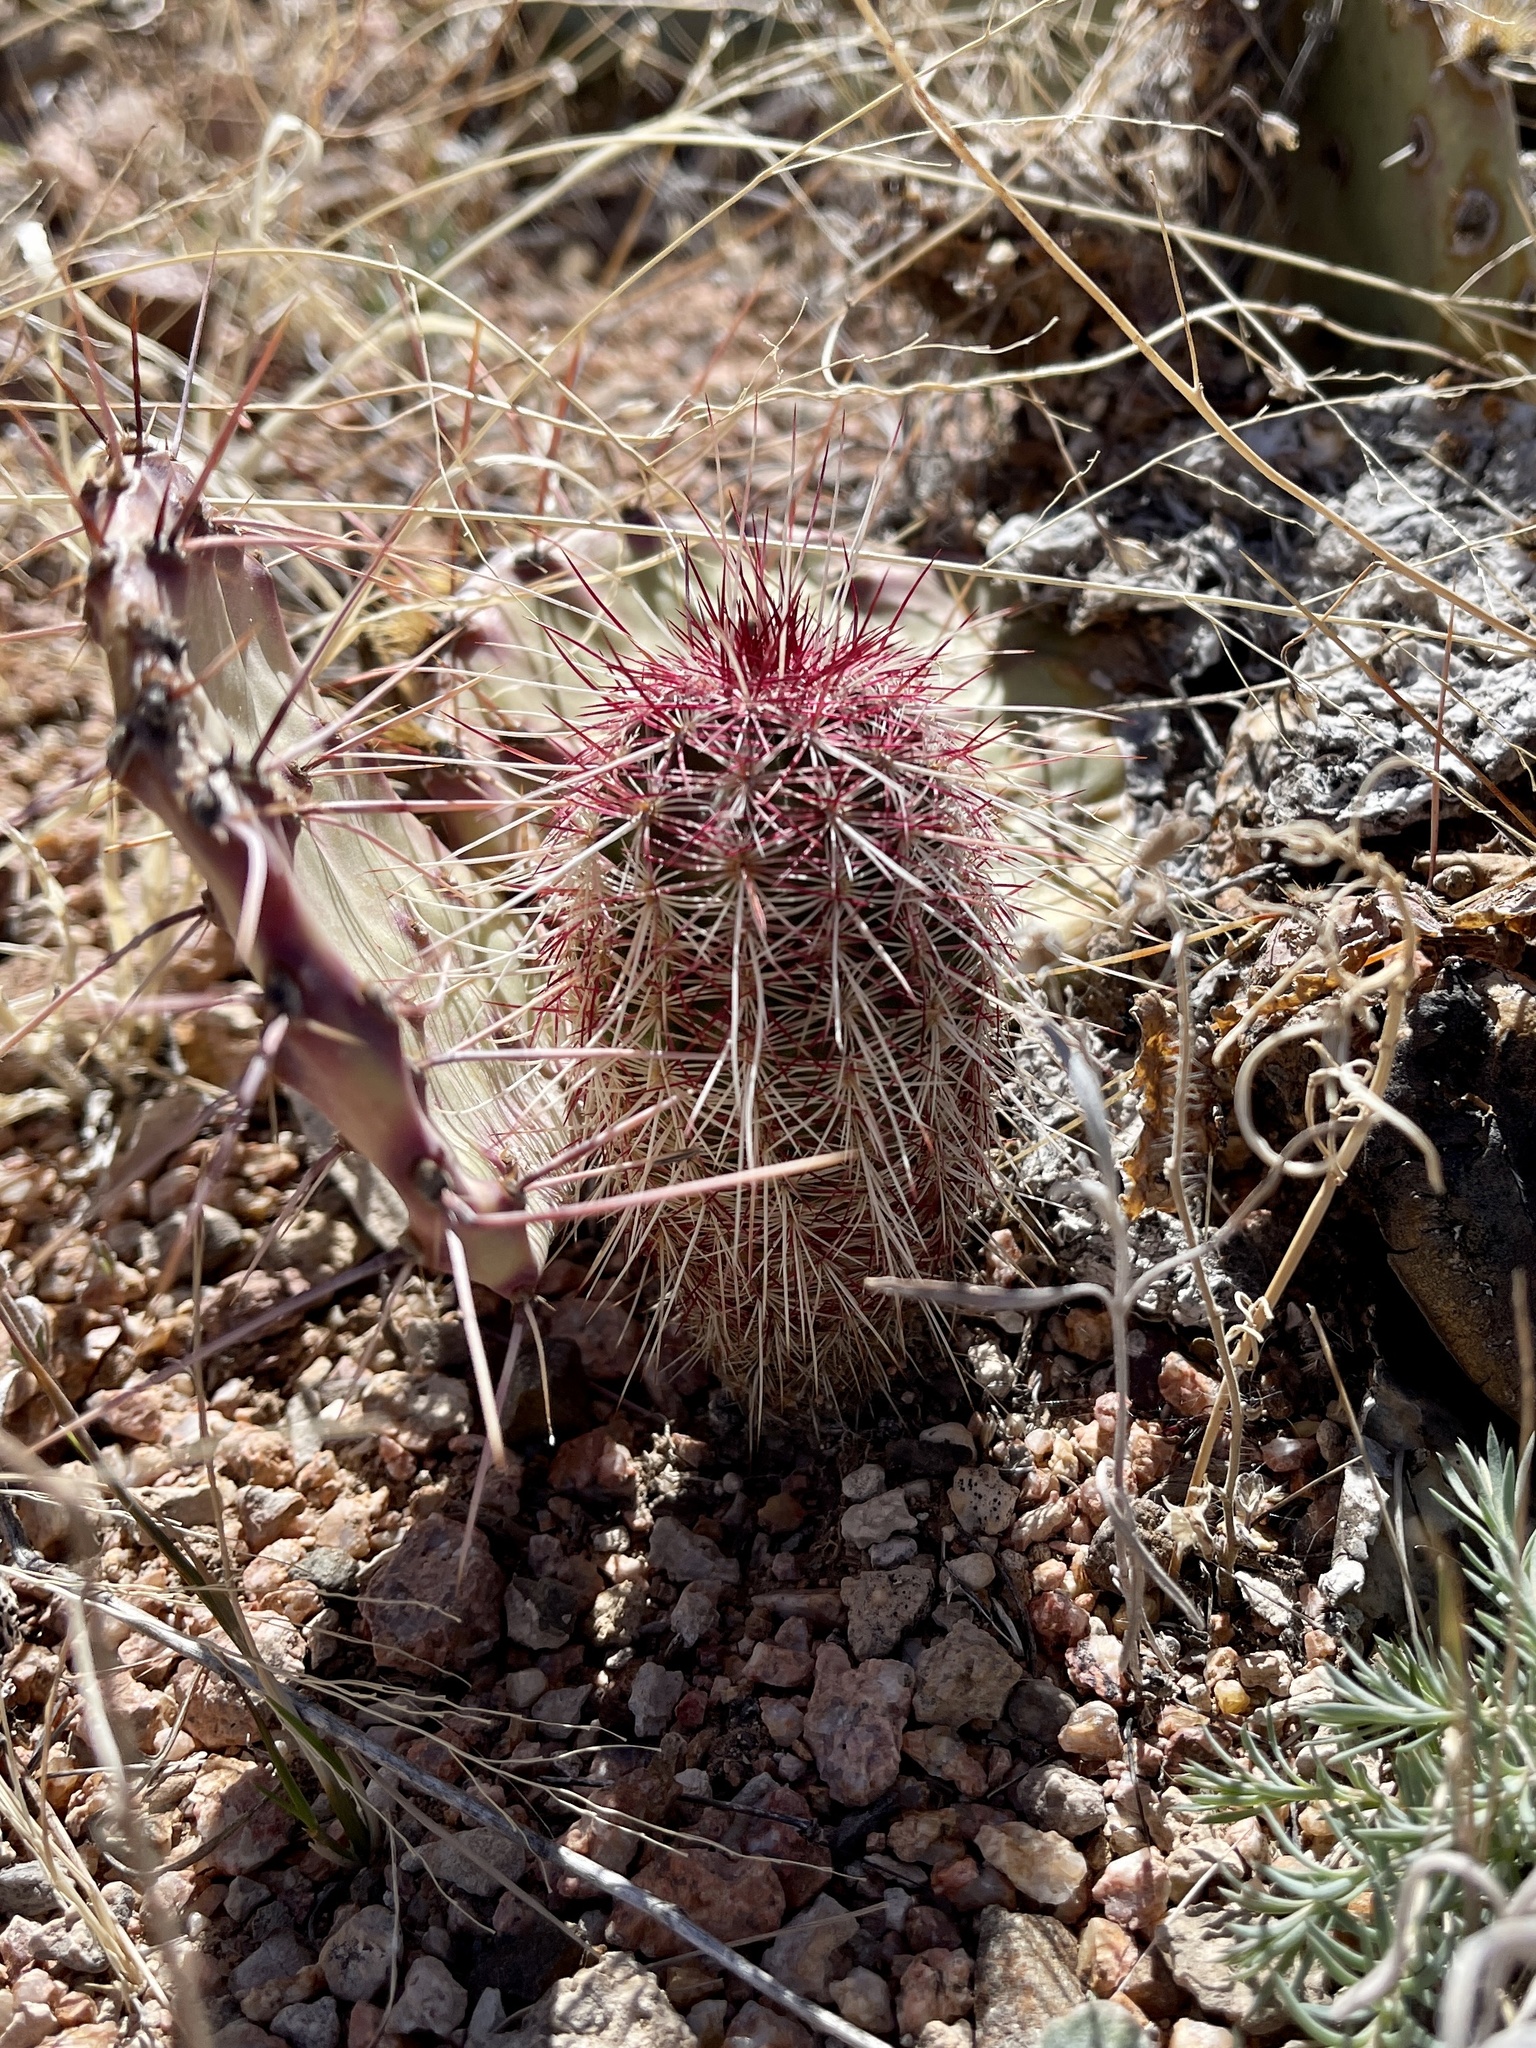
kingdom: Plantae
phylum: Tracheophyta
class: Magnoliopsida
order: Caryophyllales
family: Cactaceae
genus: Echinocereus
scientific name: Echinocereus viridiflorus
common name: Nylon hedgehog cactus
